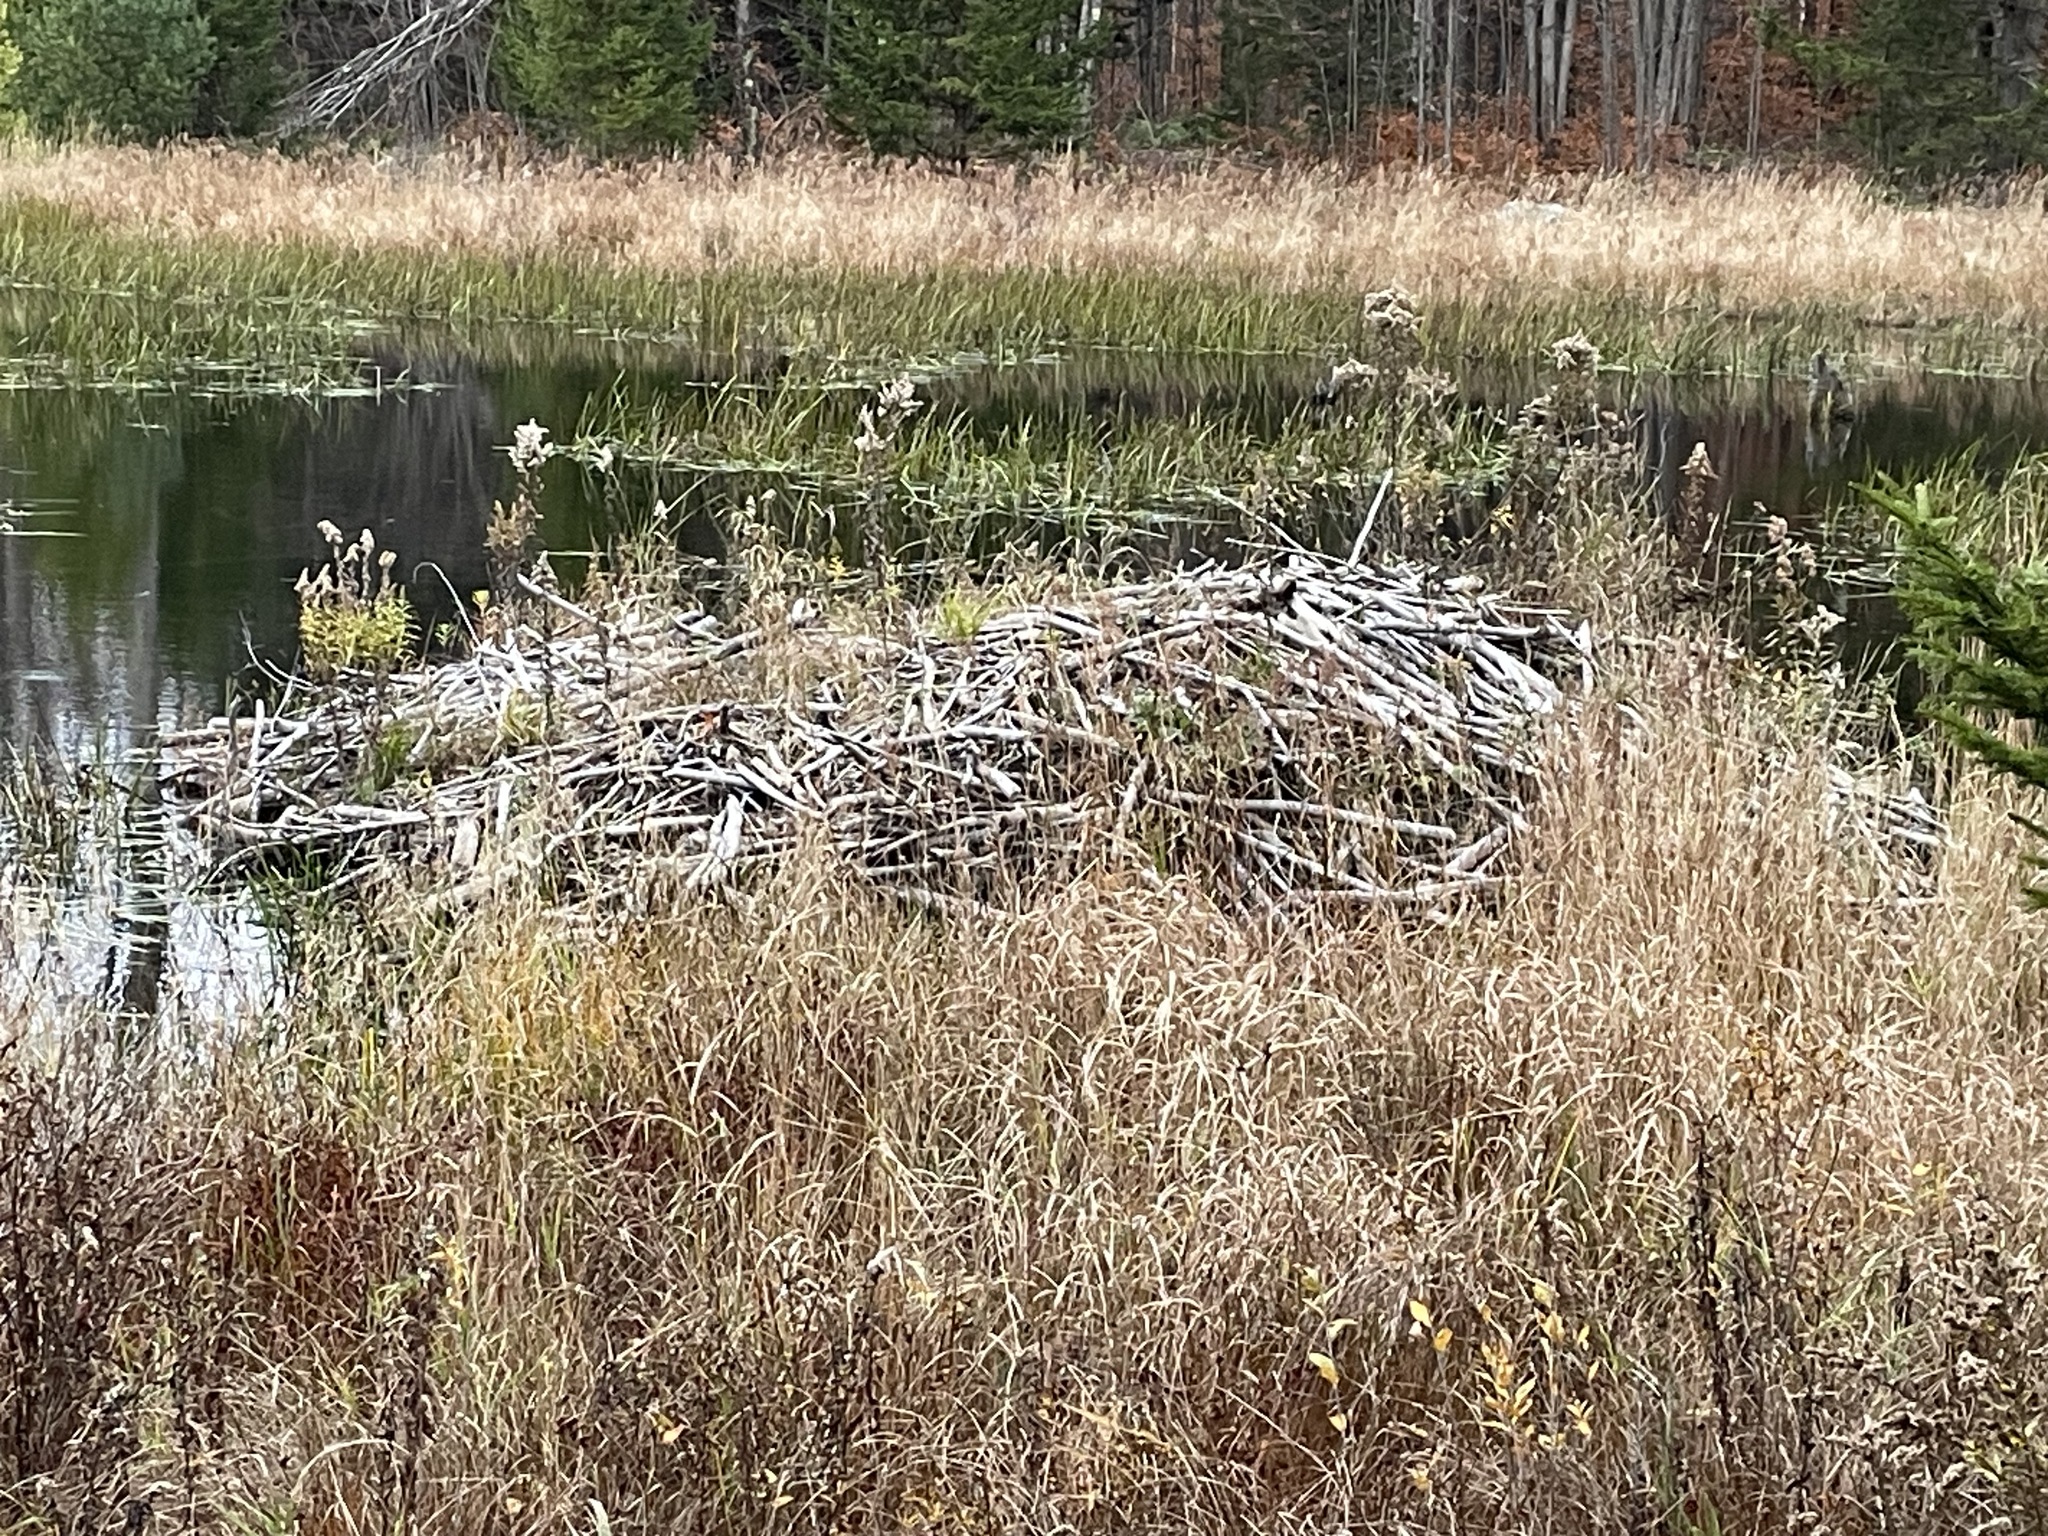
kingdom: Animalia
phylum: Chordata
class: Mammalia
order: Rodentia
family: Castoridae
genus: Castor
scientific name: Castor canadensis
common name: American beaver
